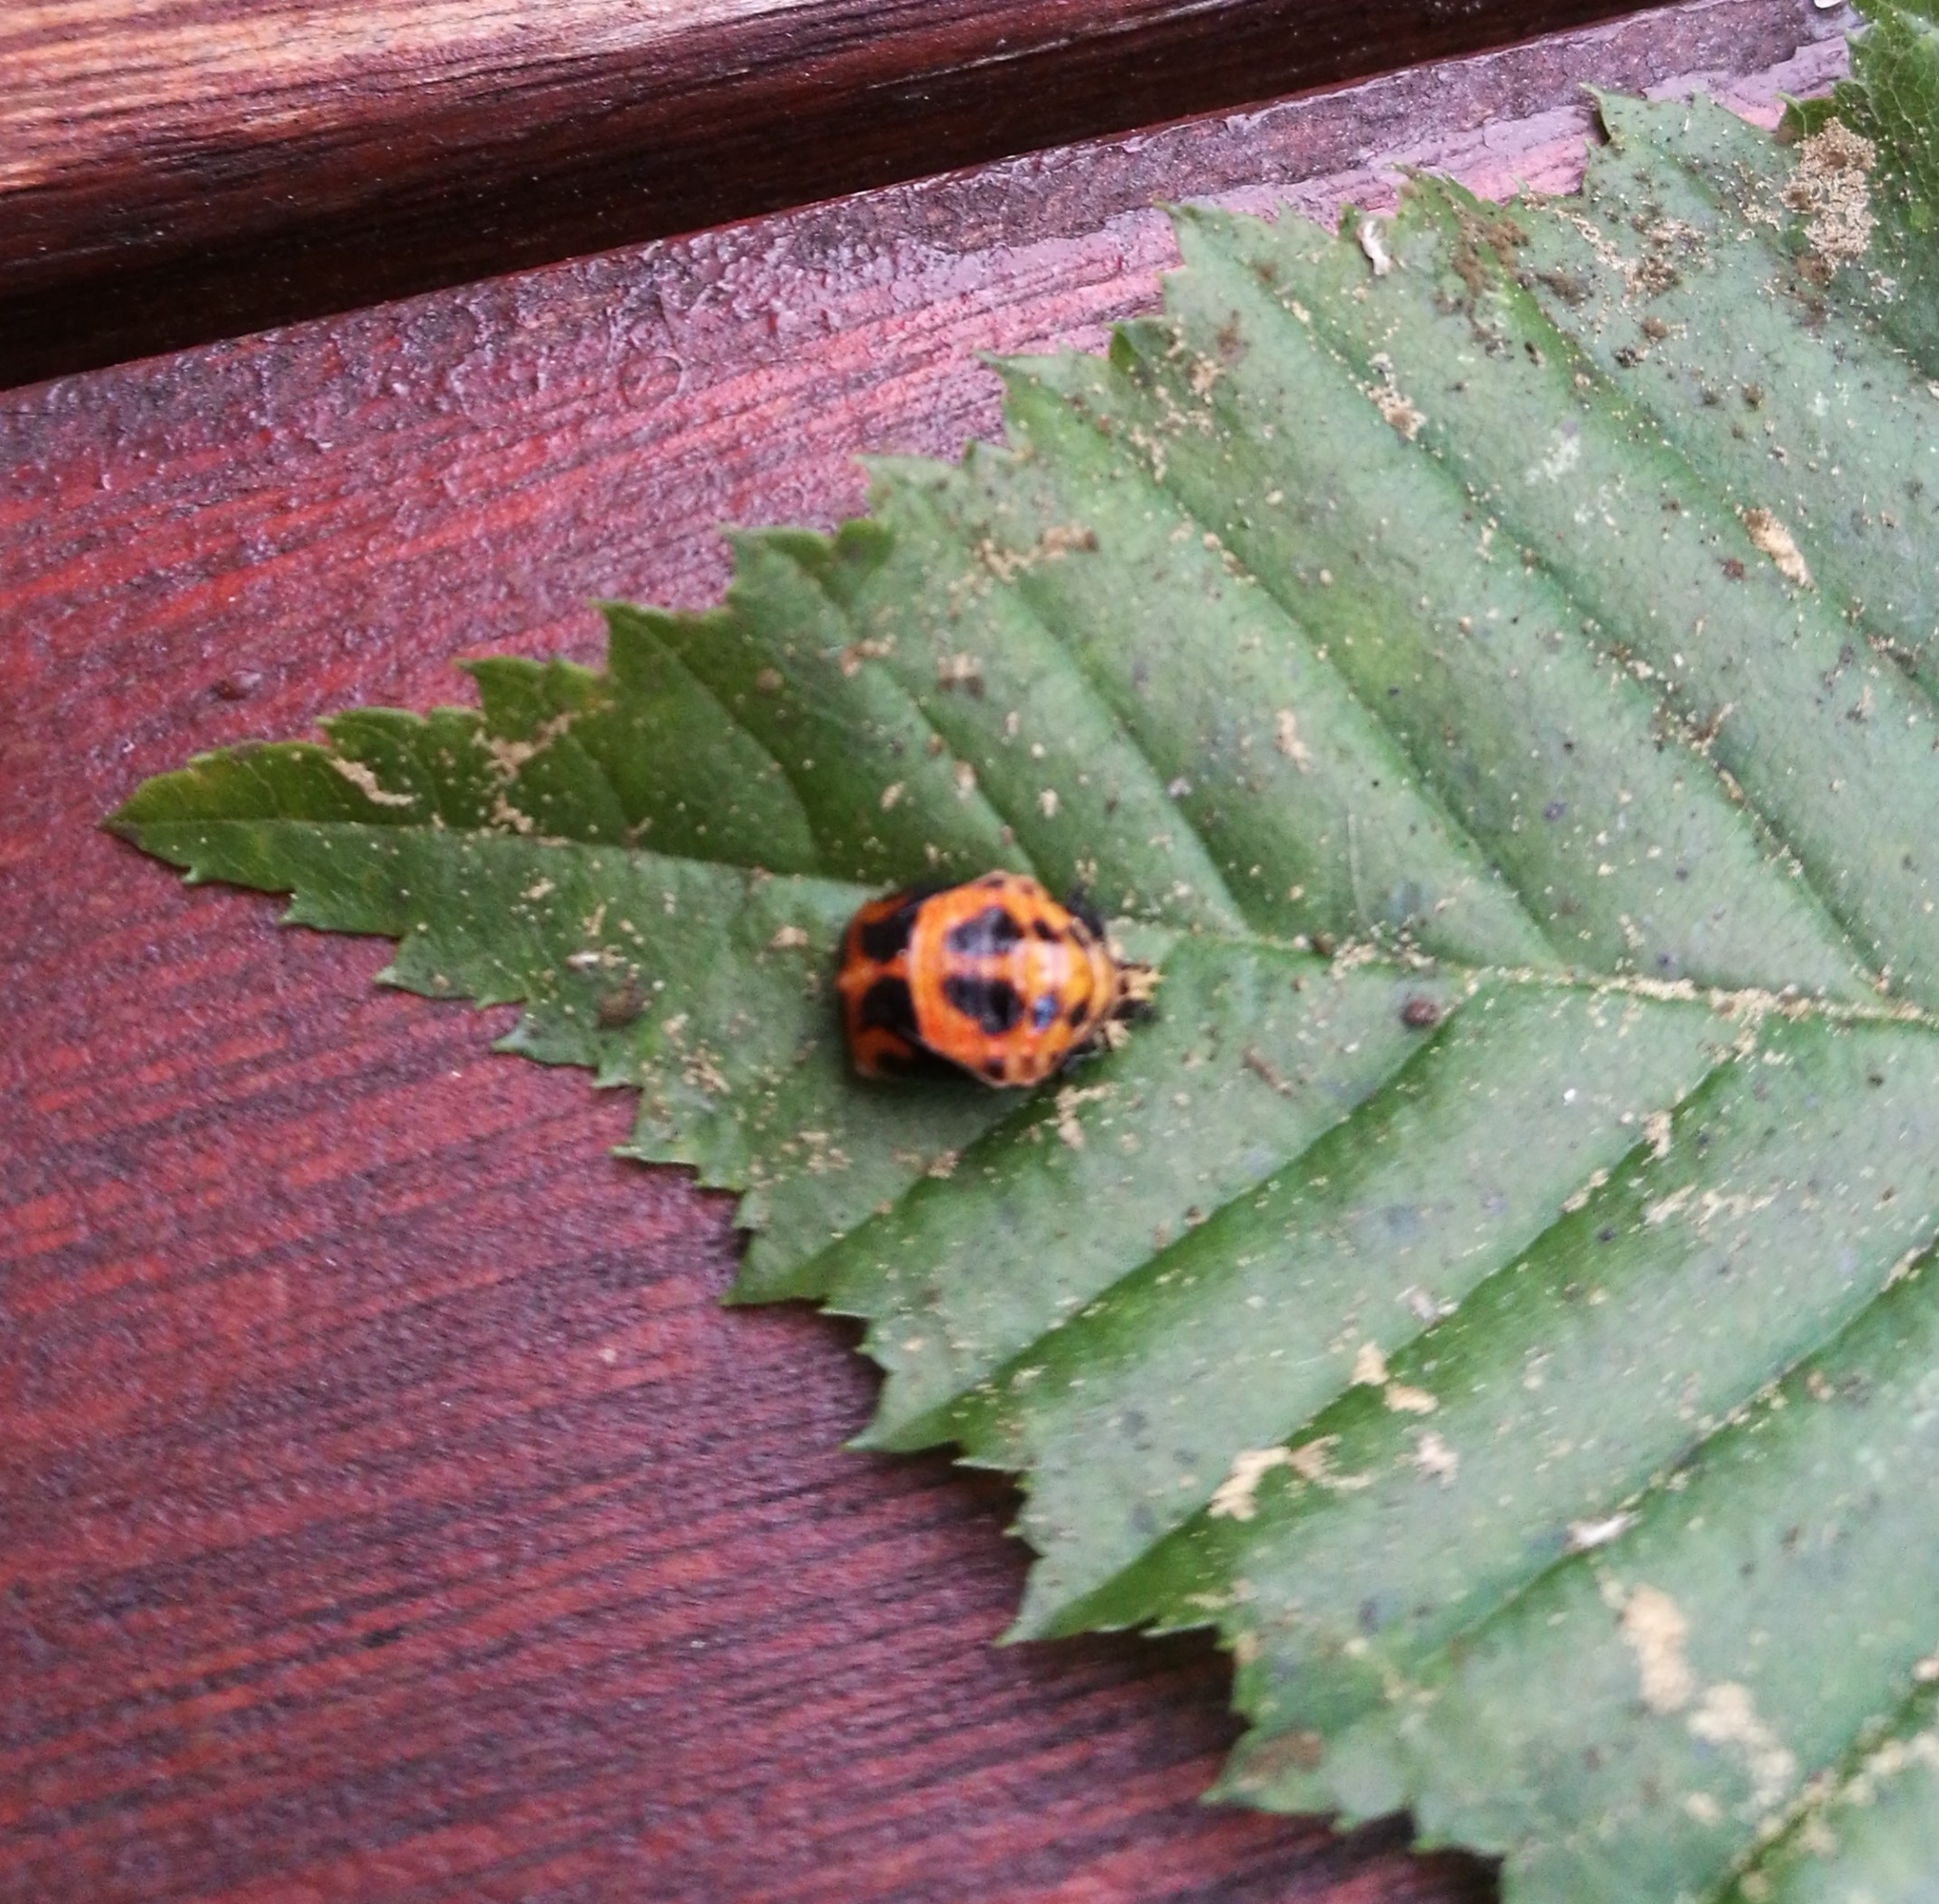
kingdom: Animalia
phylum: Arthropoda
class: Insecta
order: Coleoptera
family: Coccinellidae
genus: Harmonia
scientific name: Harmonia axyridis
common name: Harlequin ladybird
